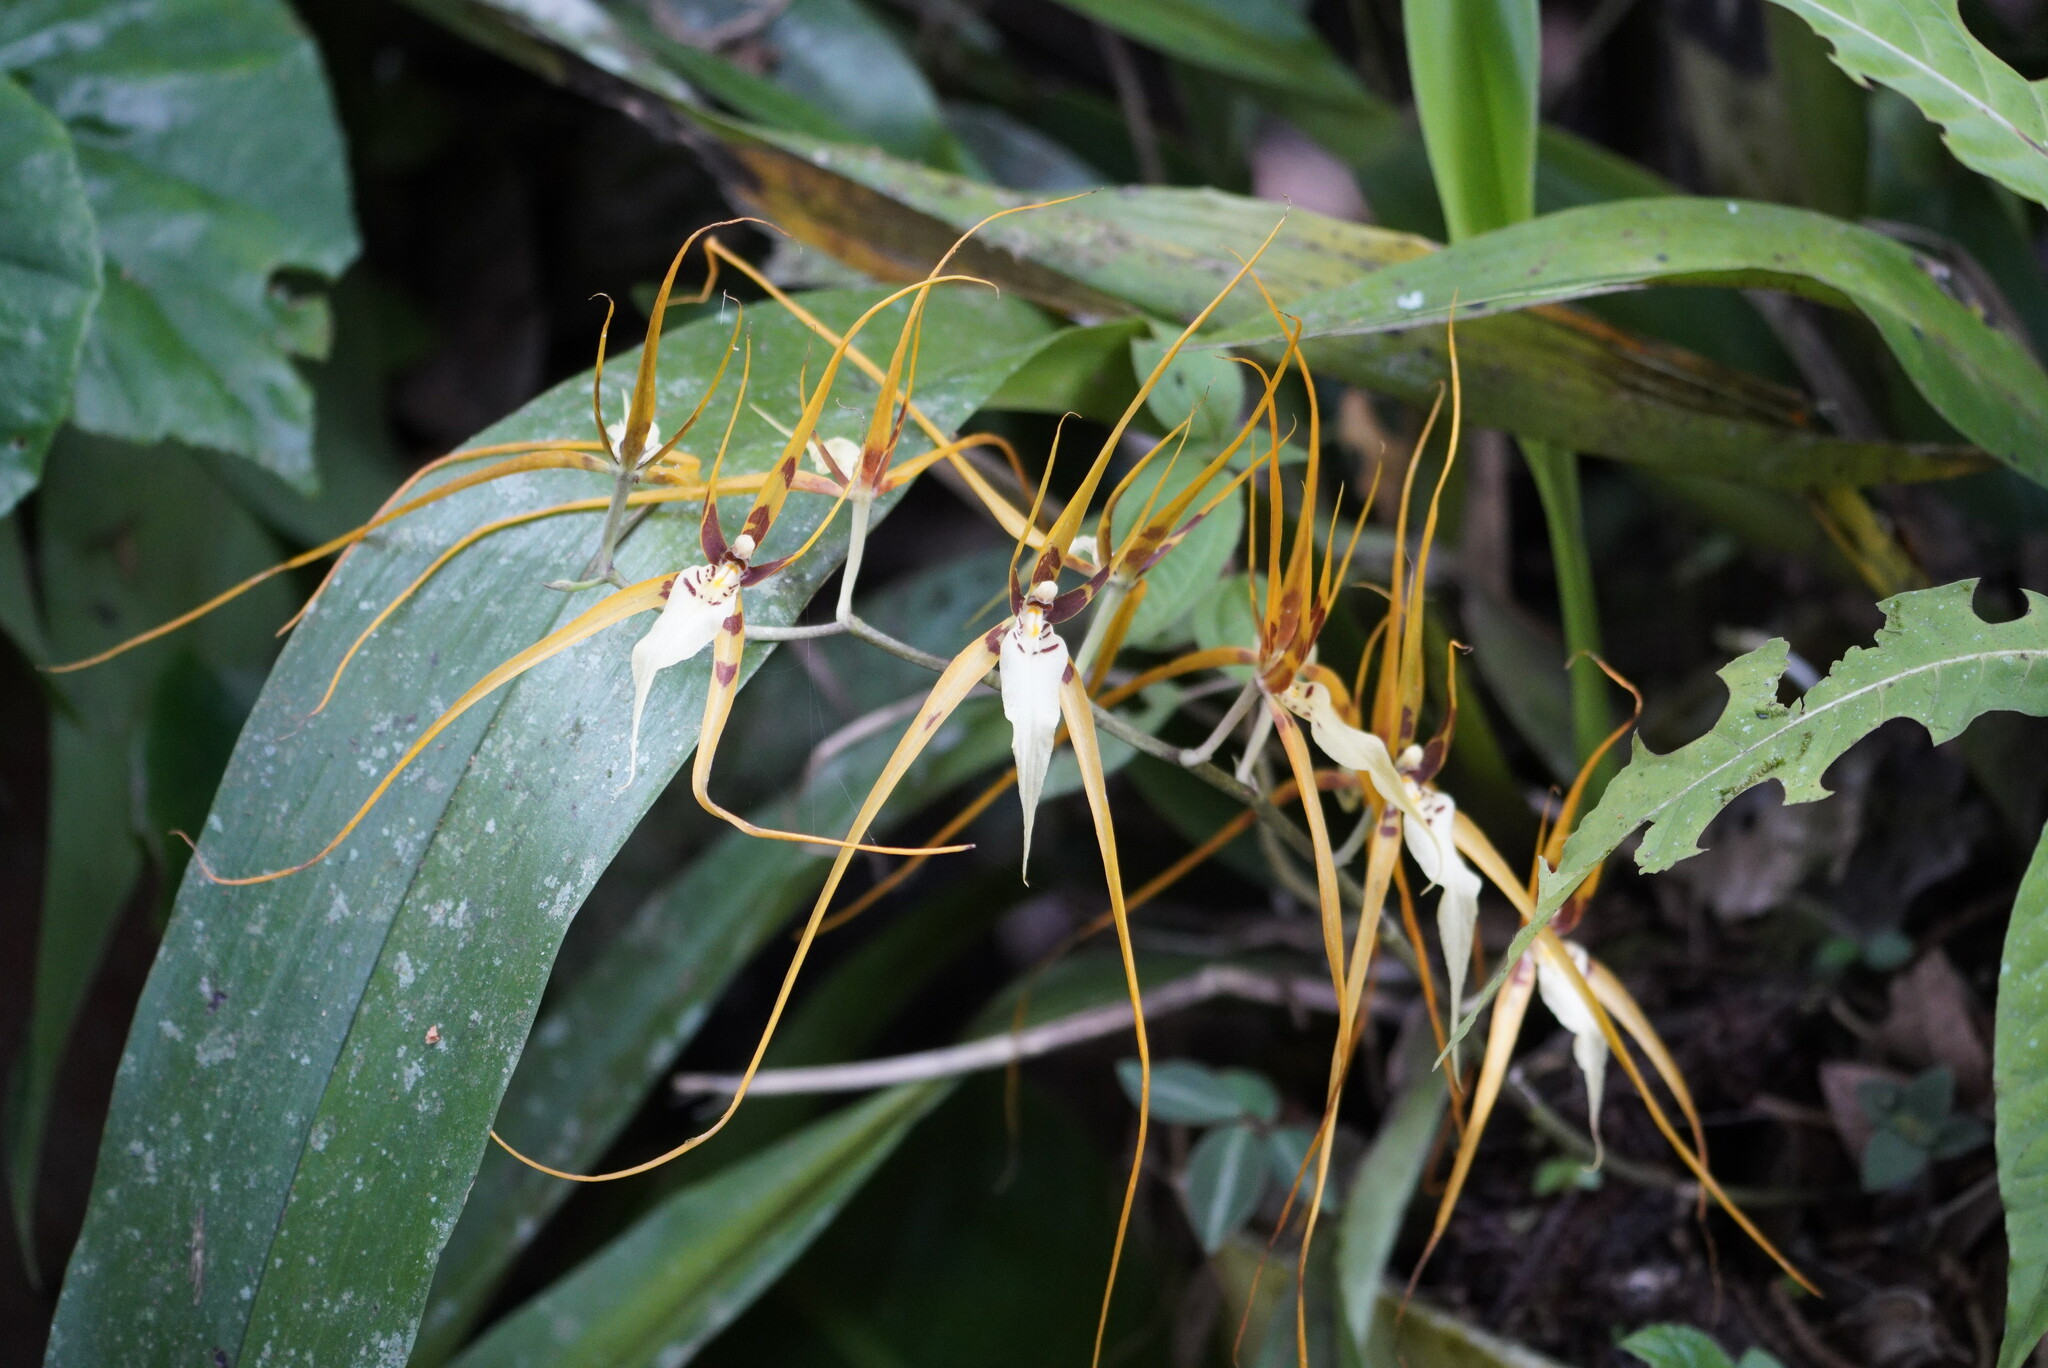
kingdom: Plantae
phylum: Tracheophyta
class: Liliopsida
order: Asparagales
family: Orchidaceae
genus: Brassia
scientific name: Brassia arcuigera
